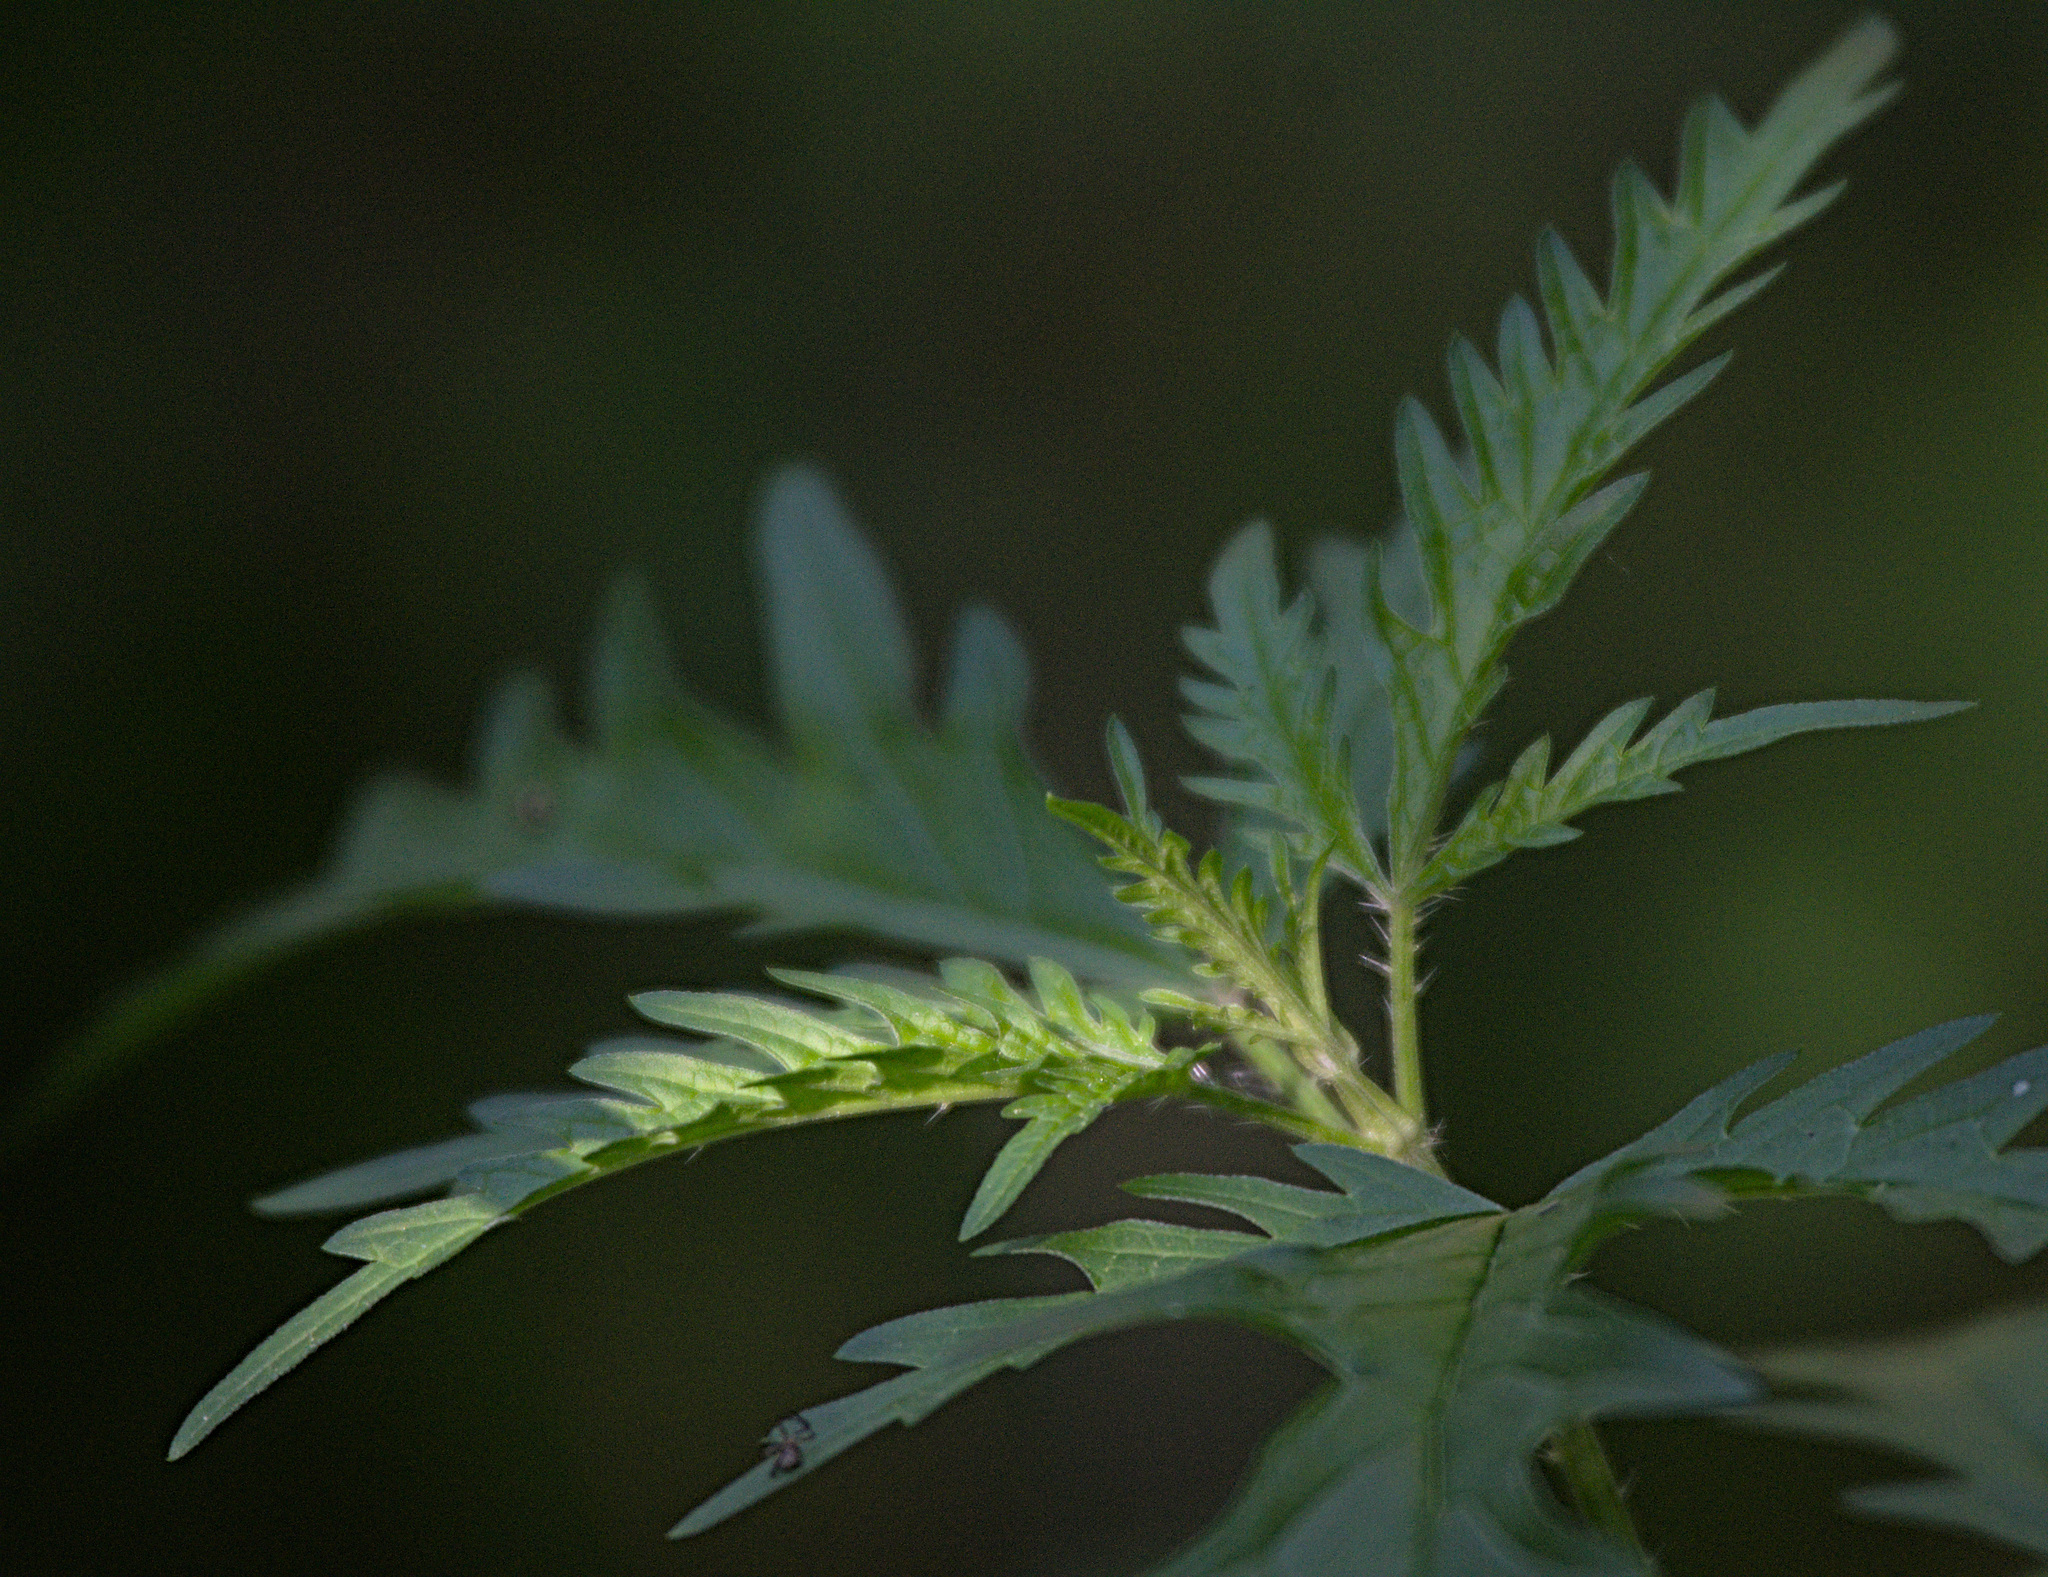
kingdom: Plantae
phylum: Tracheophyta
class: Magnoliopsida
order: Rosales
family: Urticaceae
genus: Urtica
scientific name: Urtica cannabina
